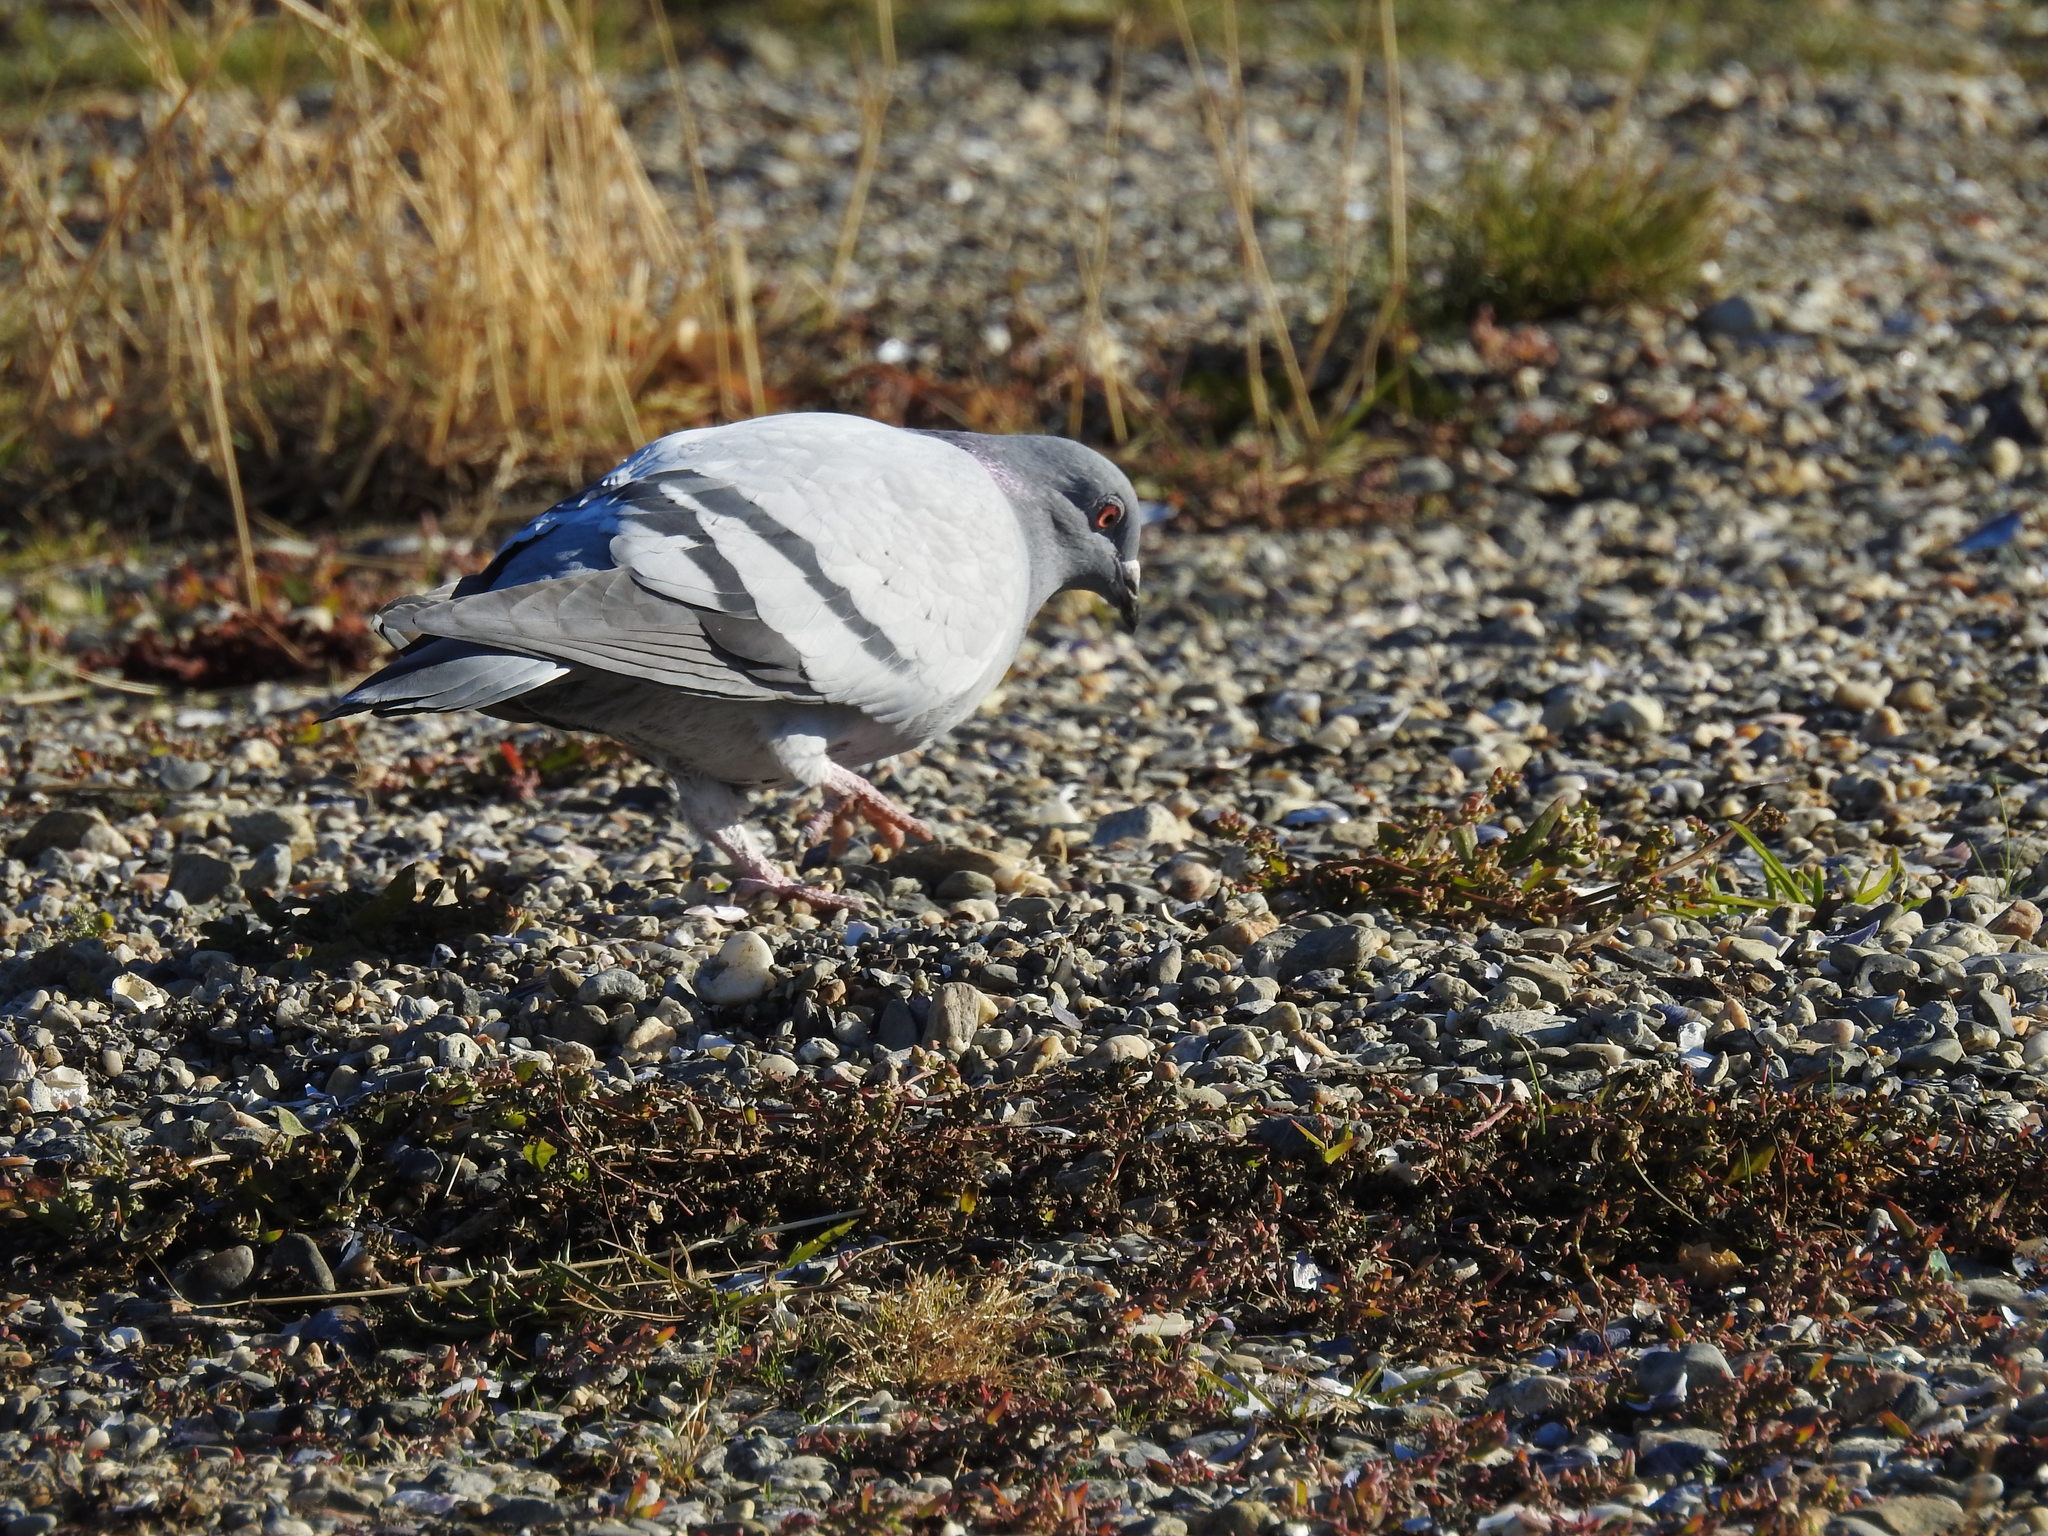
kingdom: Animalia
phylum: Chordata
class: Aves
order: Columbiformes
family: Columbidae
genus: Columba
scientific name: Columba livia
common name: Rock pigeon
